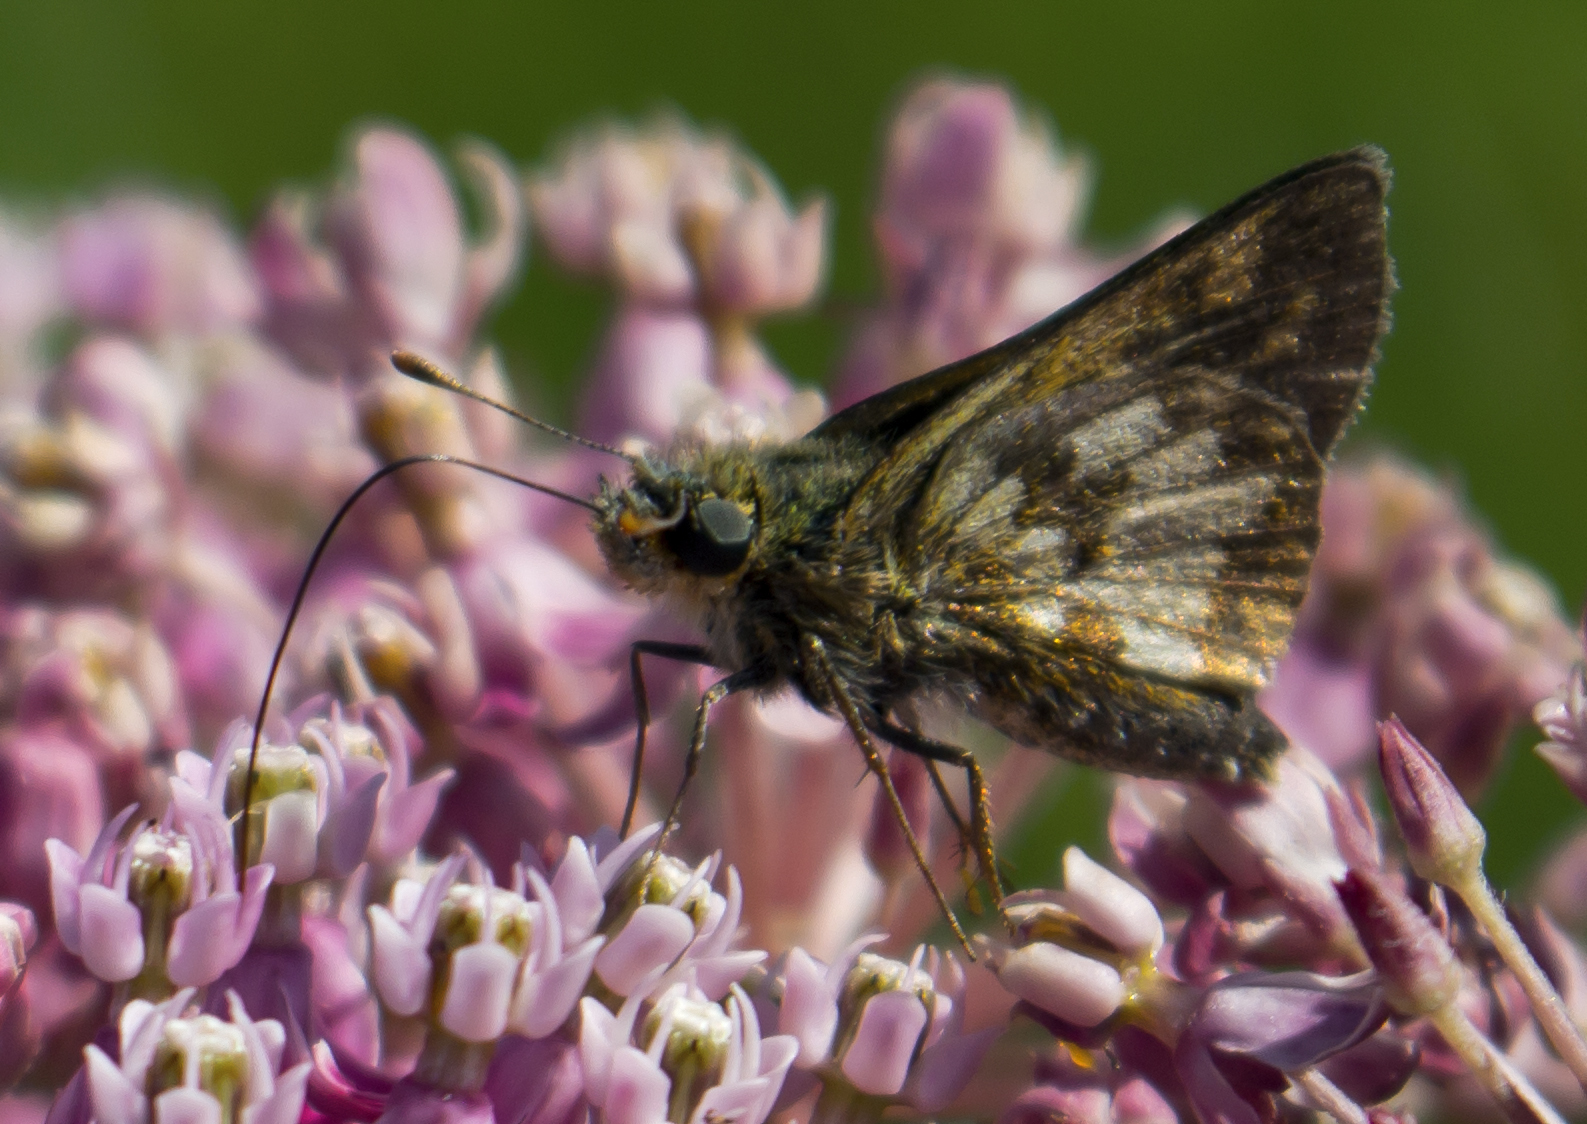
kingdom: Animalia
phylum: Arthropoda
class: Insecta
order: Lepidoptera
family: Hesperiidae
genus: Polites
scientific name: Polites coras
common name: Peck's skipper
